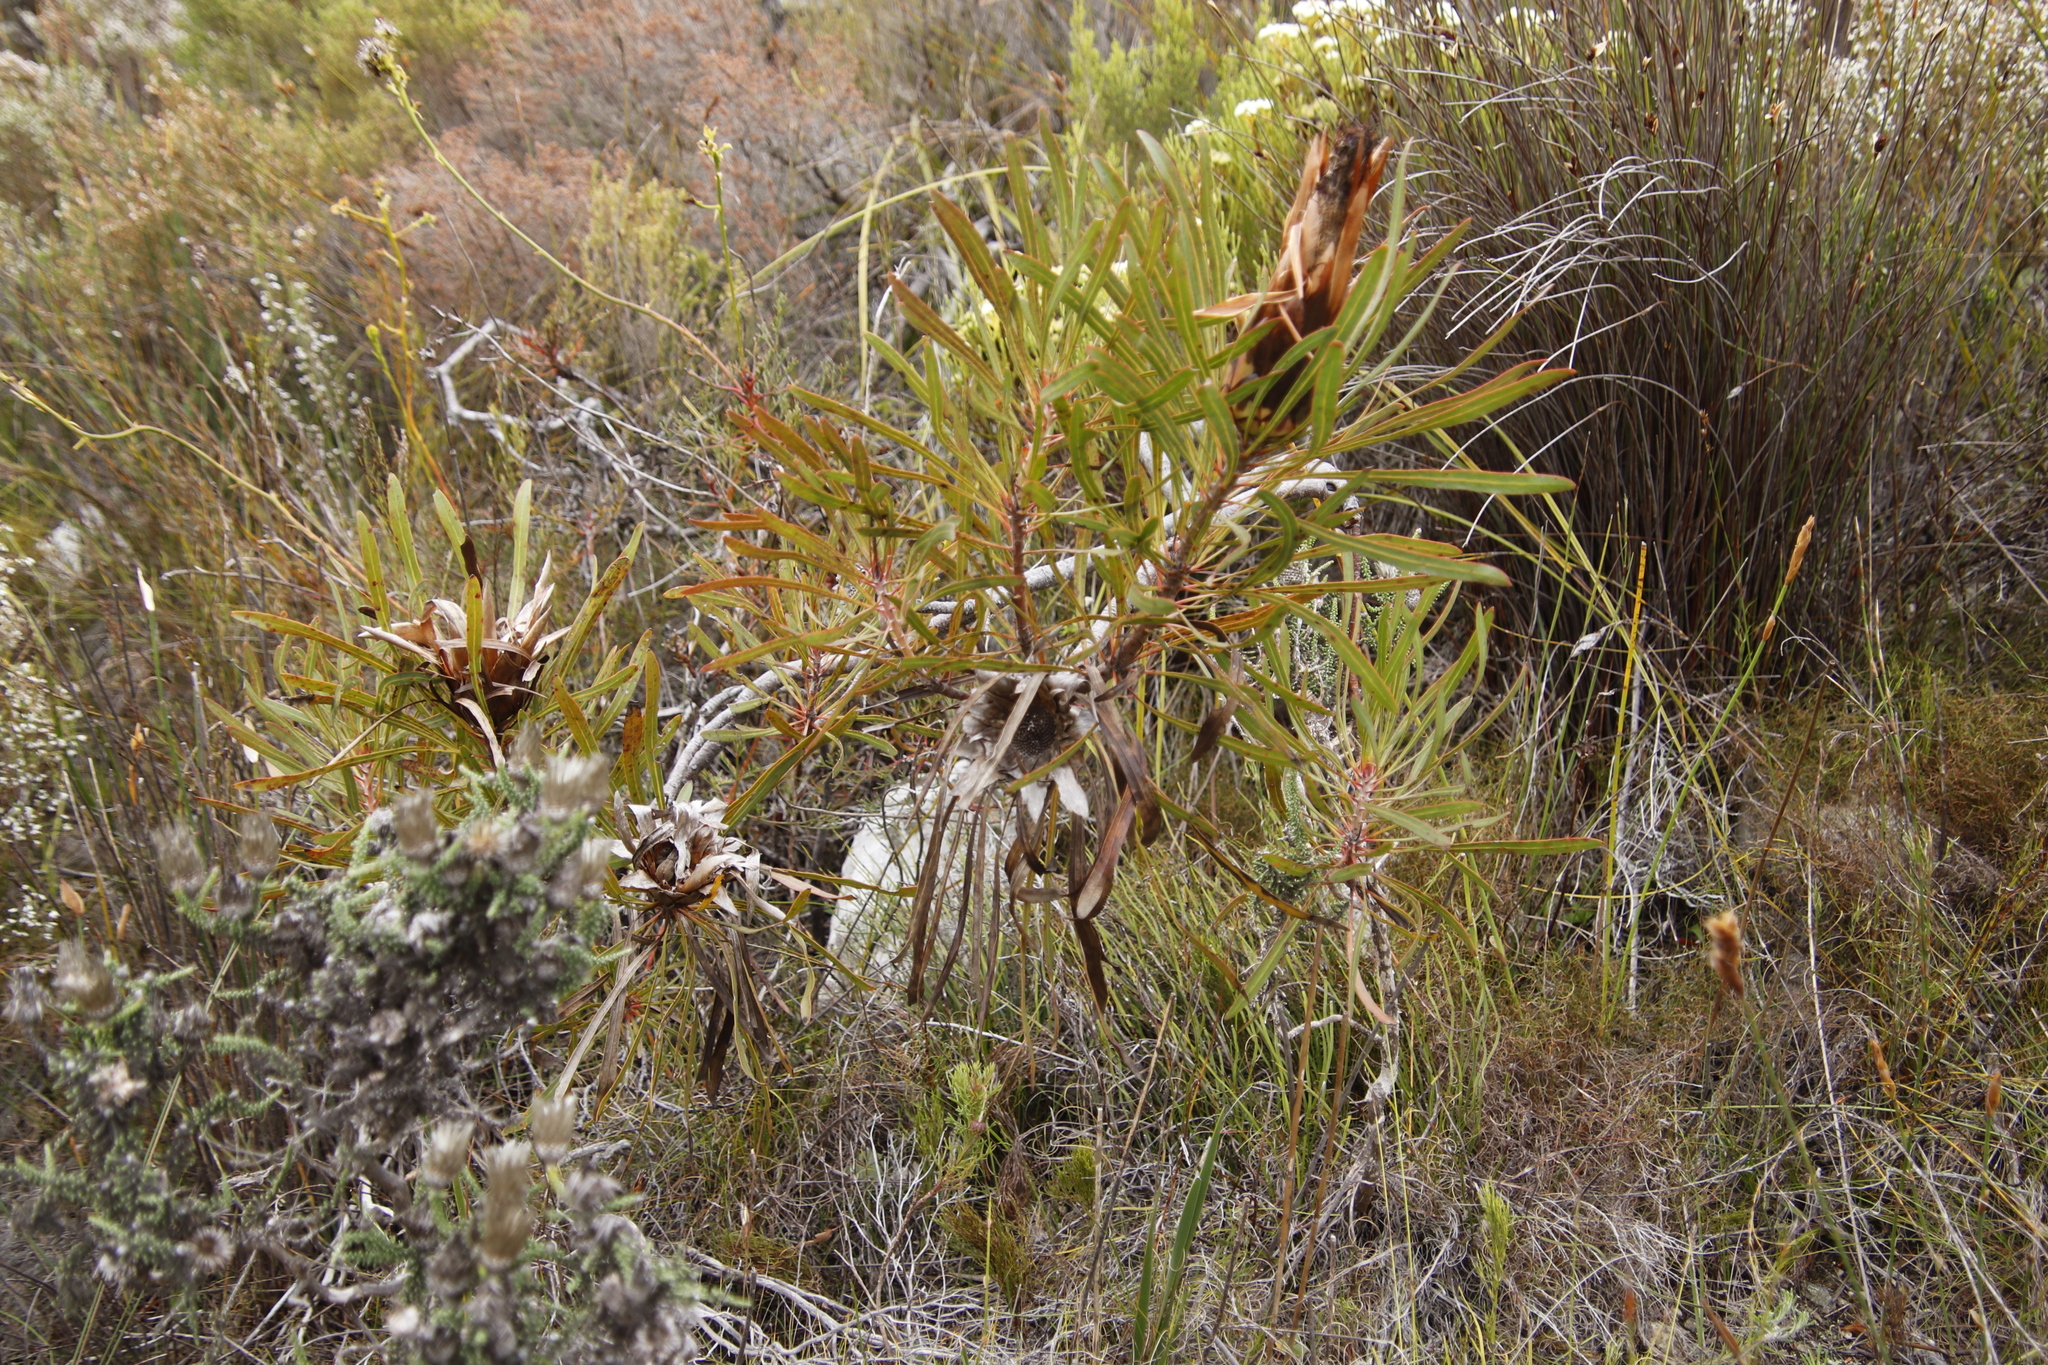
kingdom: Plantae
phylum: Tracheophyta
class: Magnoliopsida
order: Proteales
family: Proteaceae
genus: Protea
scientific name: Protea longifolia
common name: Long-leaf sugarbush
